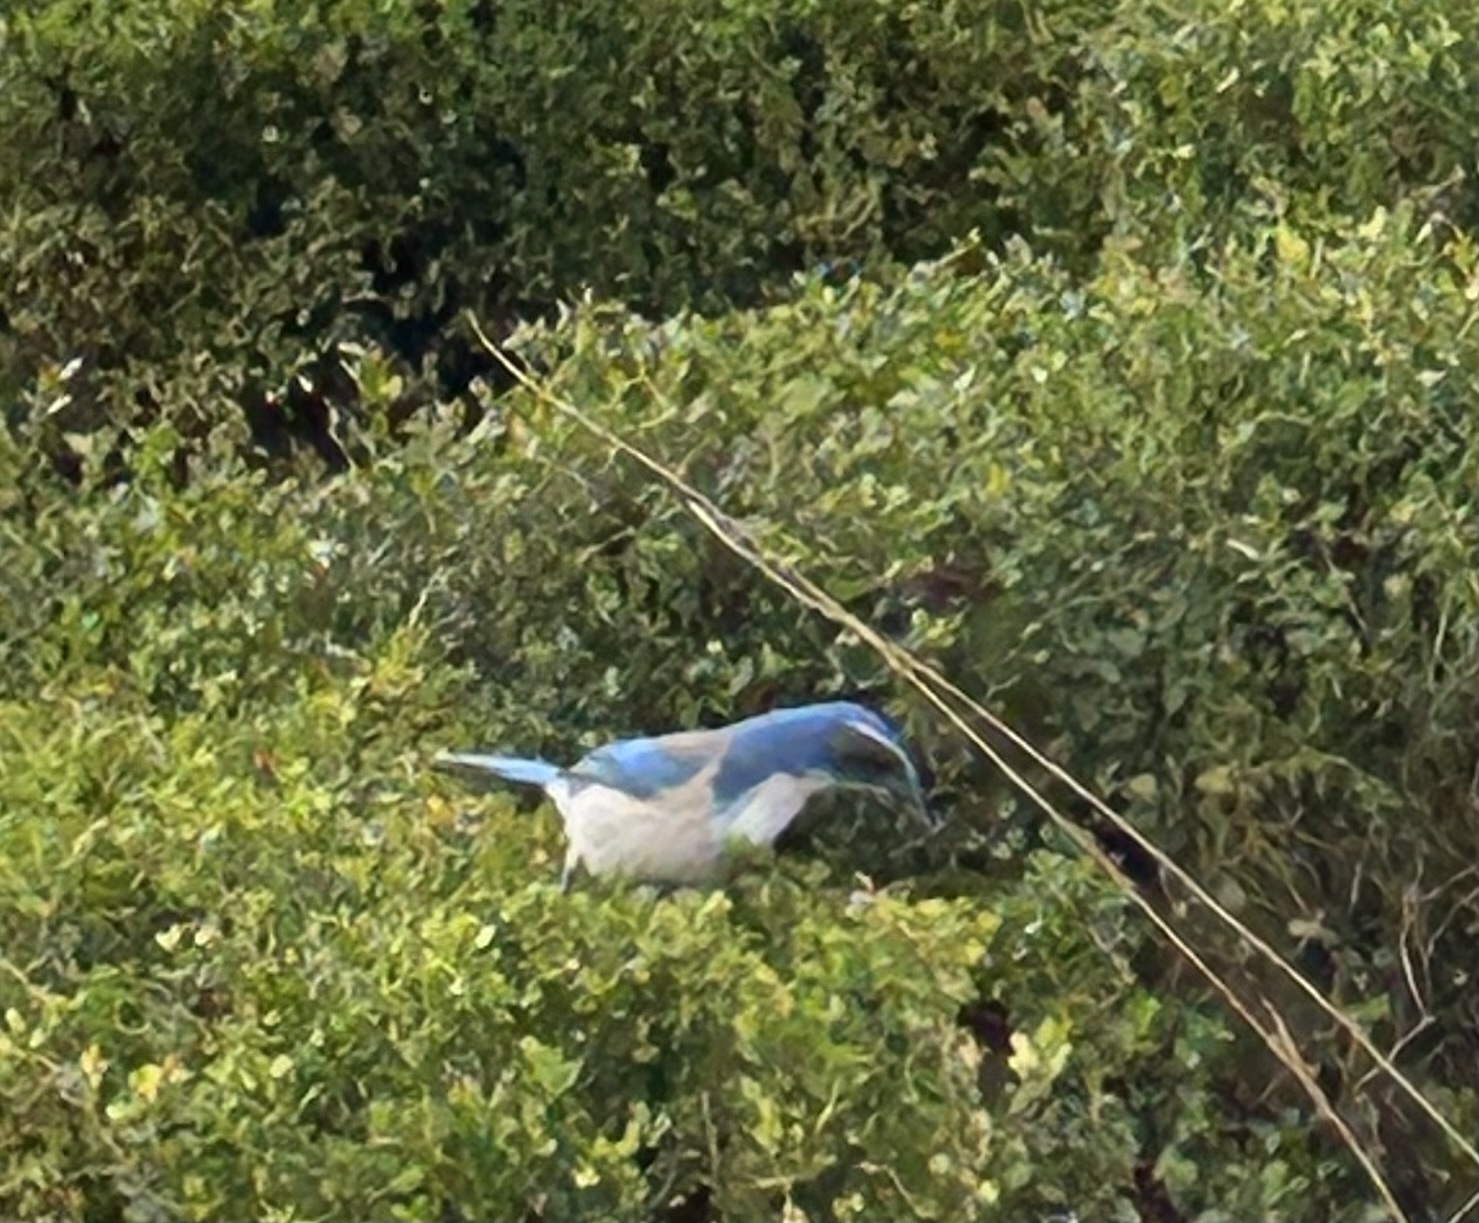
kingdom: Animalia
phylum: Chordata
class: Aves
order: Passeriformes
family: Corvidae
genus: Aphelocoma
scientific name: Aphelocoma californica
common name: California scrub-jay
